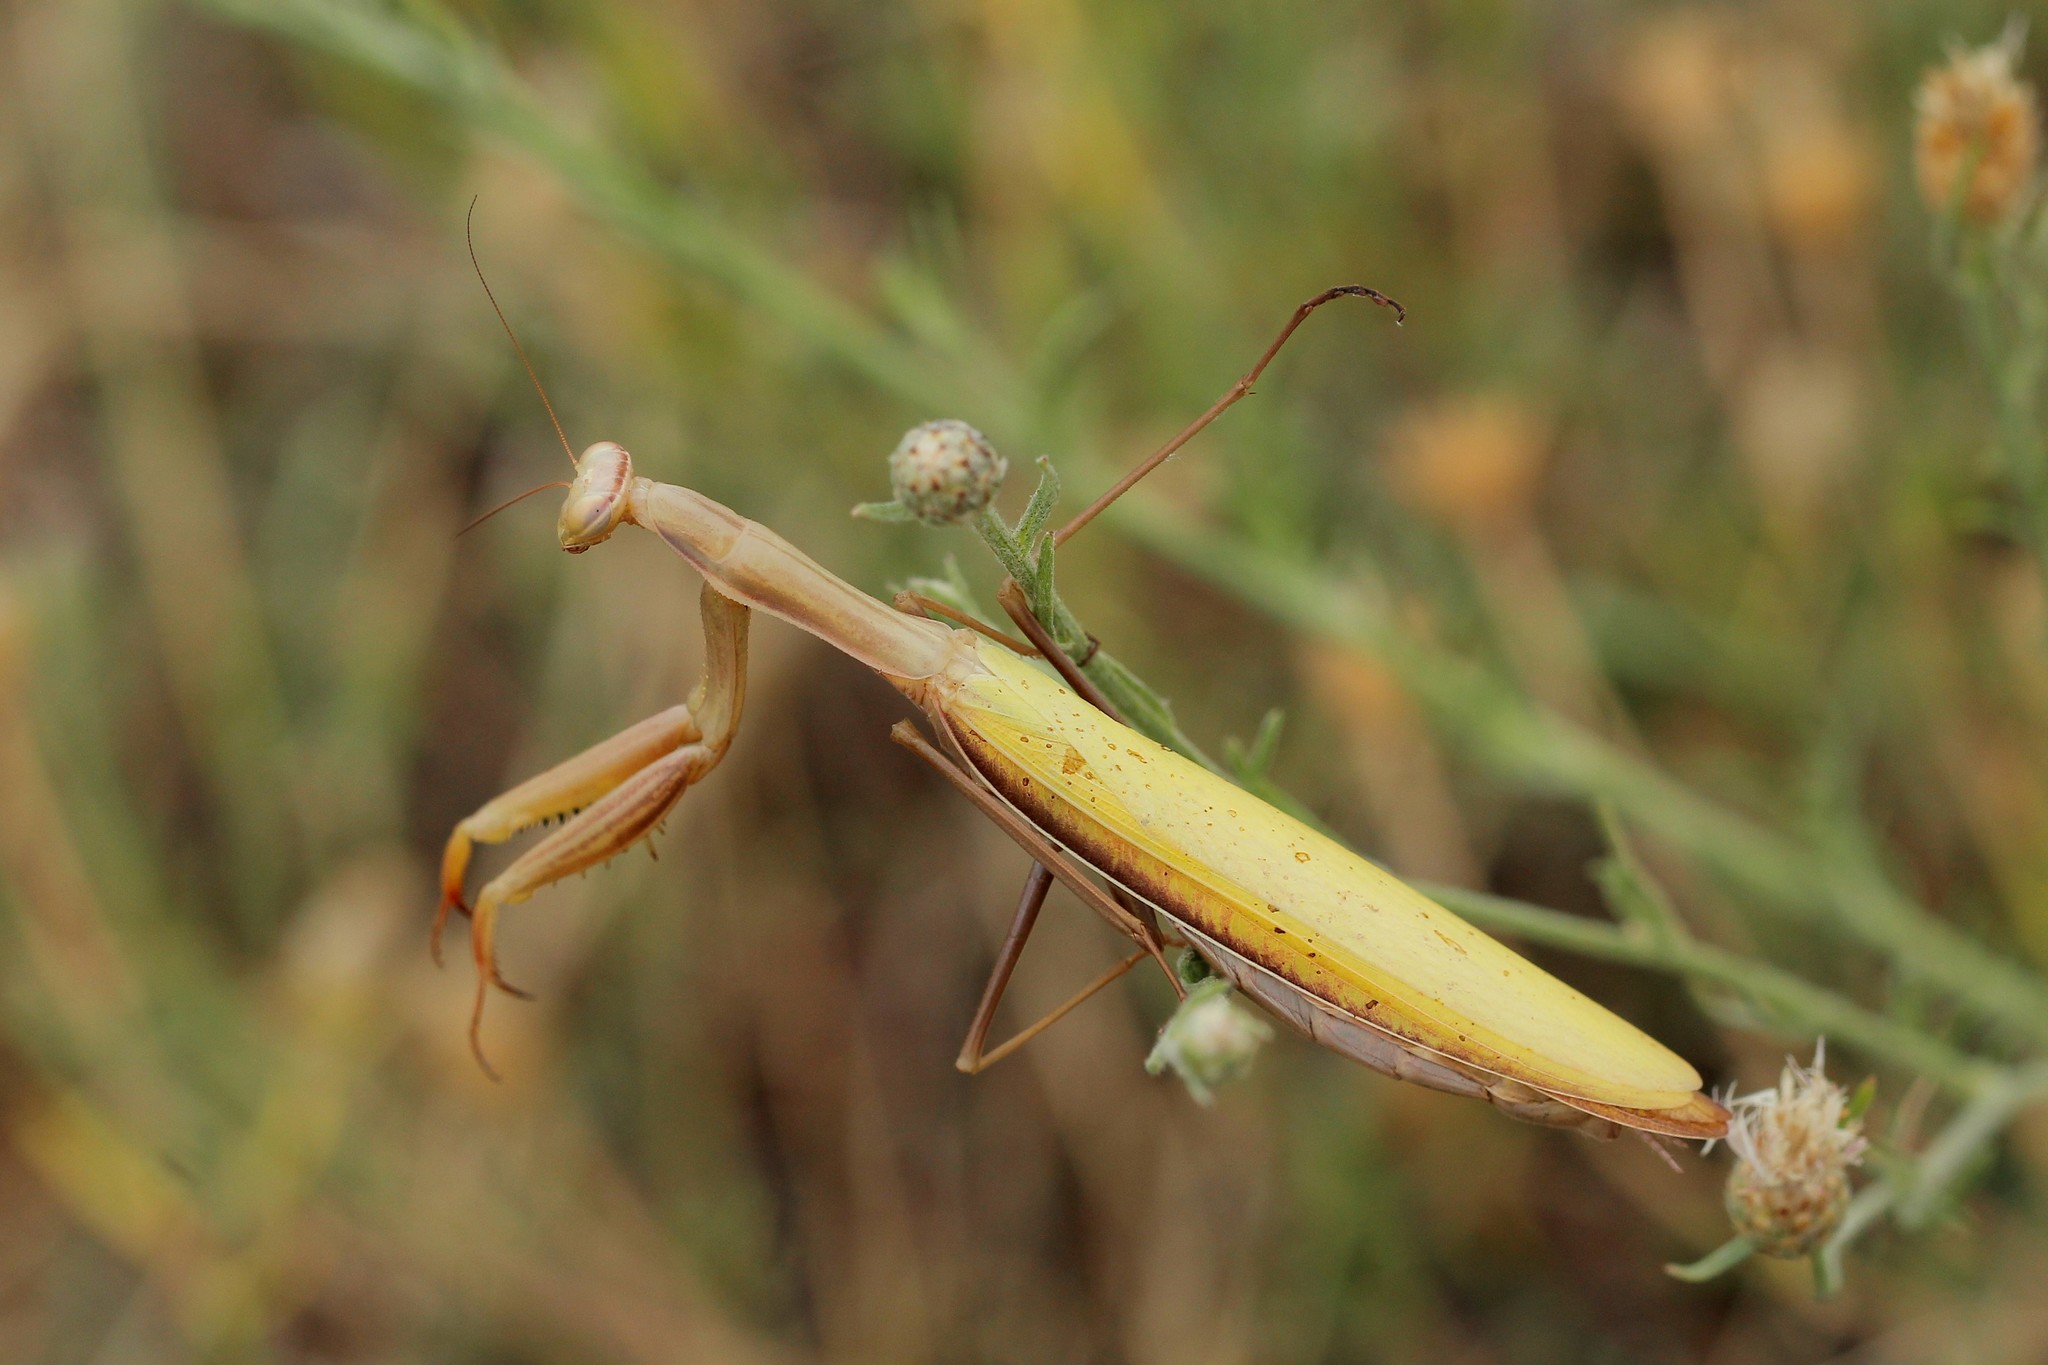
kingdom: Animalia
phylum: Arthropoda
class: Insecta
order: Mantodea
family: Mantidae
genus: Mantis
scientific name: Mantis religiosa
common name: Praying mantis
